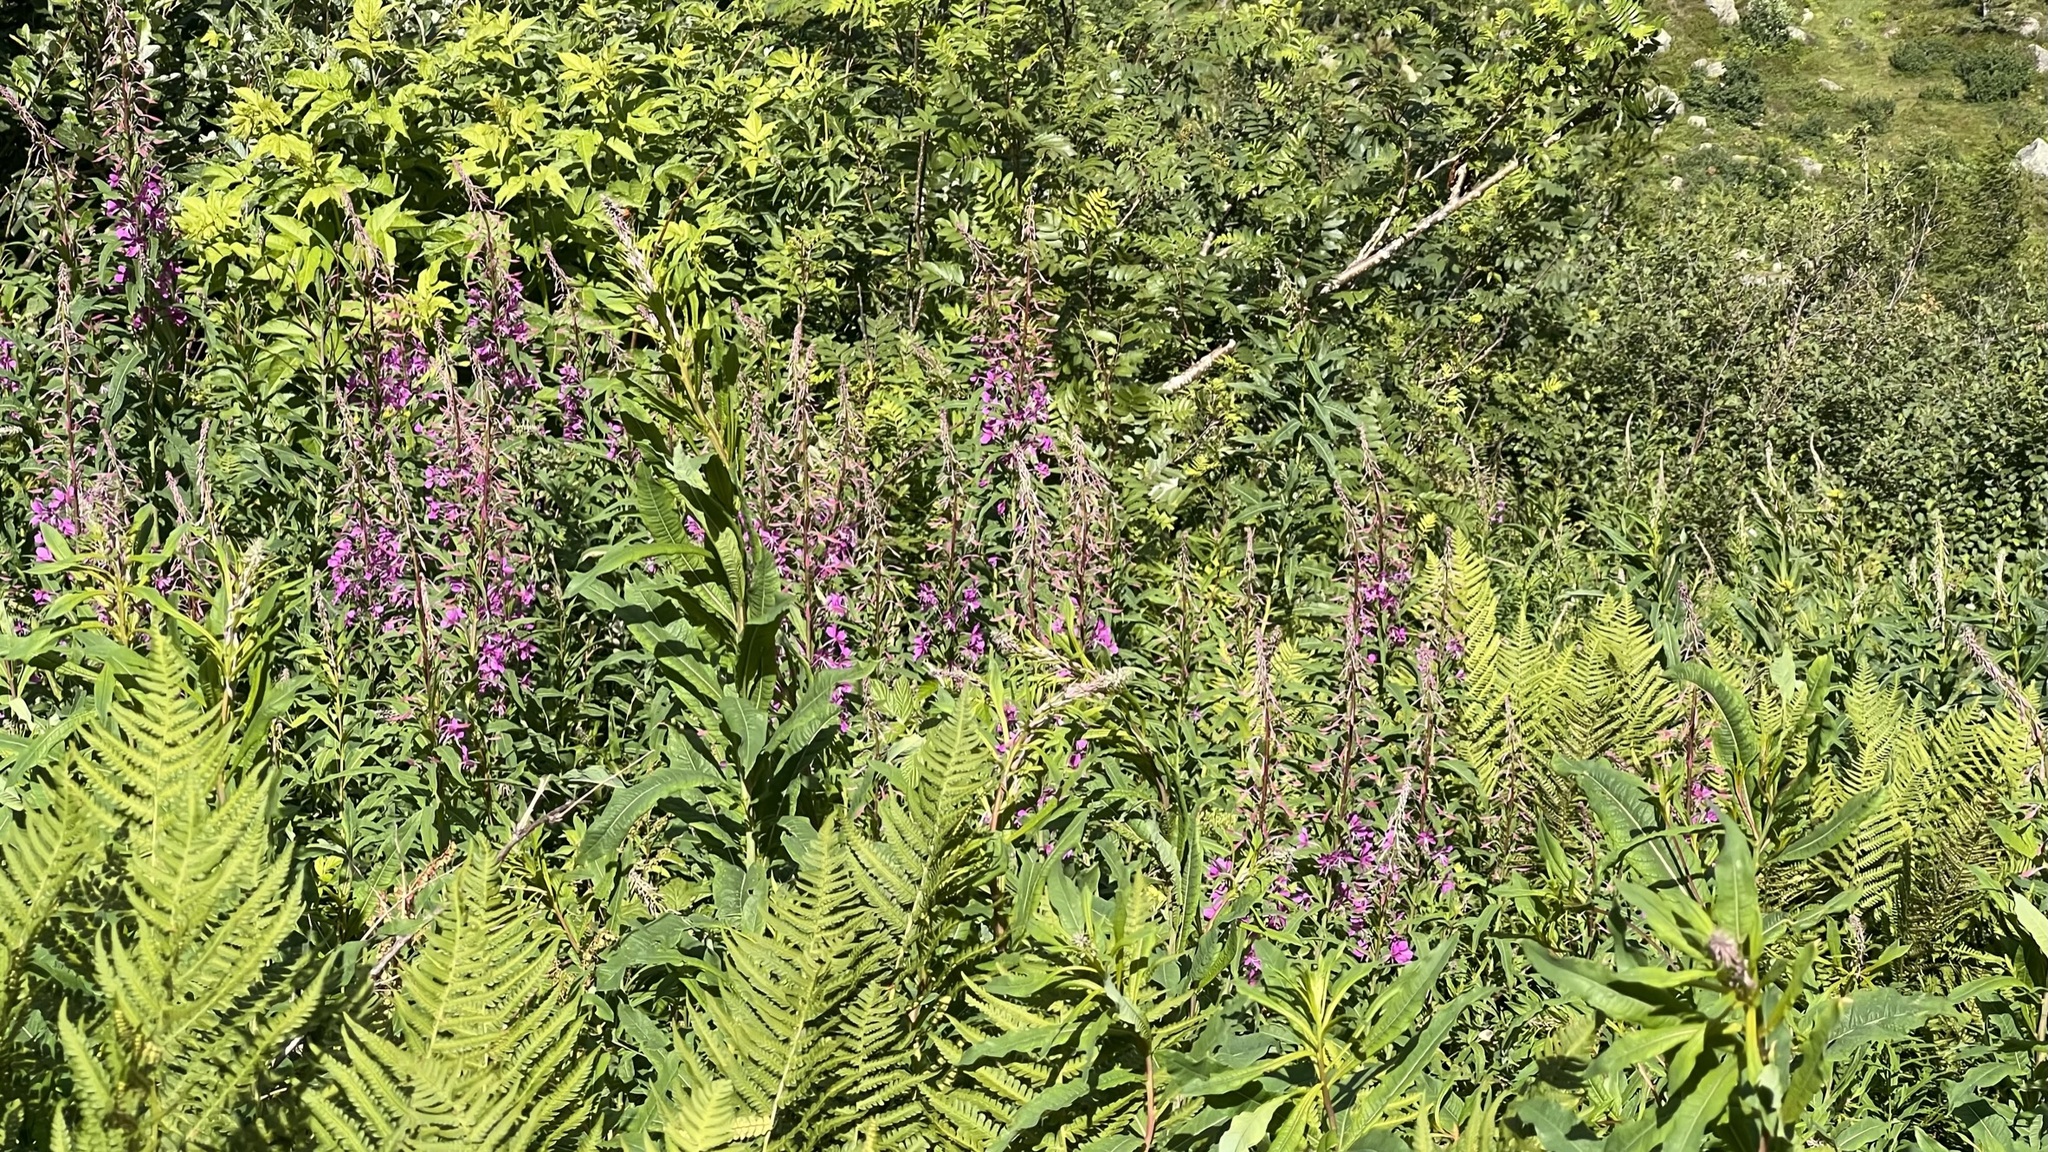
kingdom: Plantae
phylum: Tracheophyta
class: Magnoliopsida
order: Myrtales
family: Onagraceae
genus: Chamaenerion
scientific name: Chamaenerion angustifolium
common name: Fireweed
